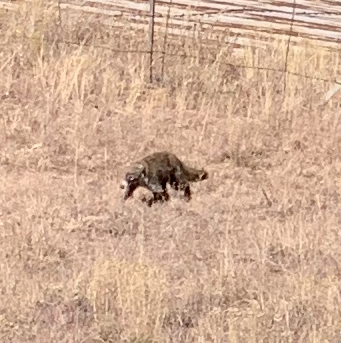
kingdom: Animalia
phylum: Chordata
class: Mammalia
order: Carnivora
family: Procyonidae
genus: Nasua
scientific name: Nasua narica
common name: White-nosed coati
